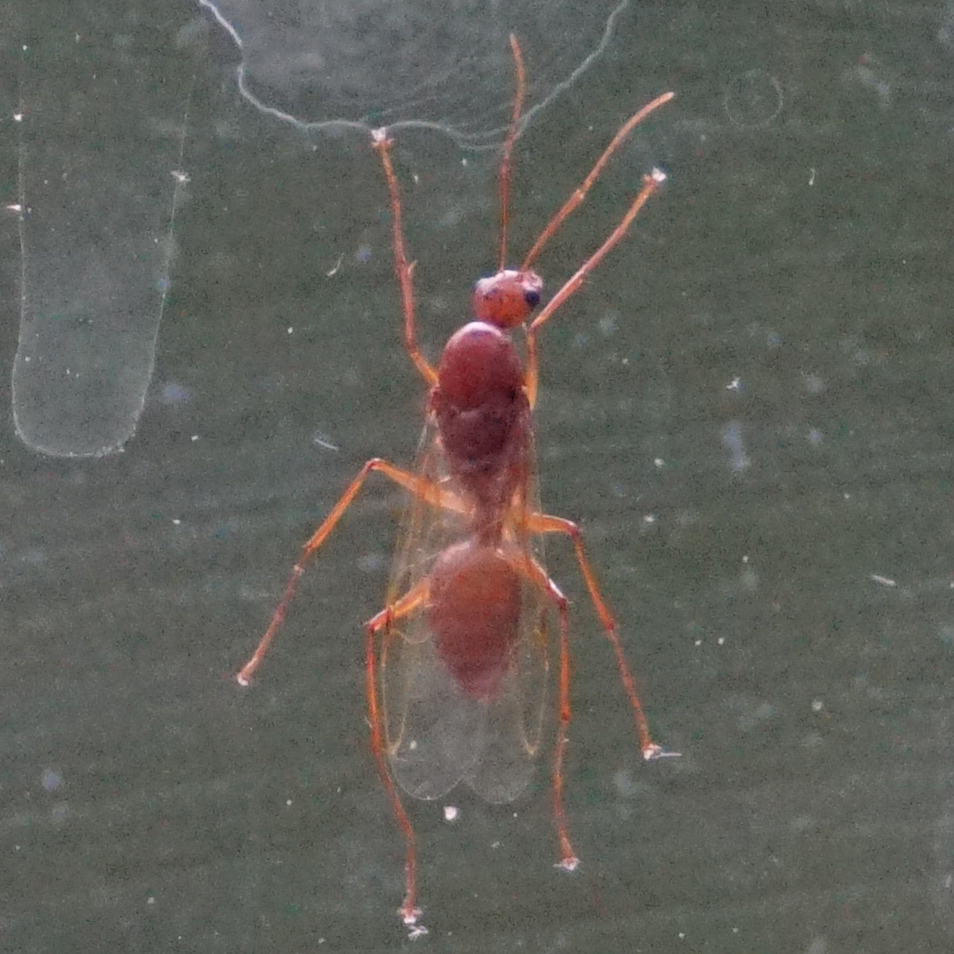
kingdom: Animalia
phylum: Arthropoda
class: Insecta
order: Hymenoptera
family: Formicidae
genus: Camponotus
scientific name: Camponotus castaneus
